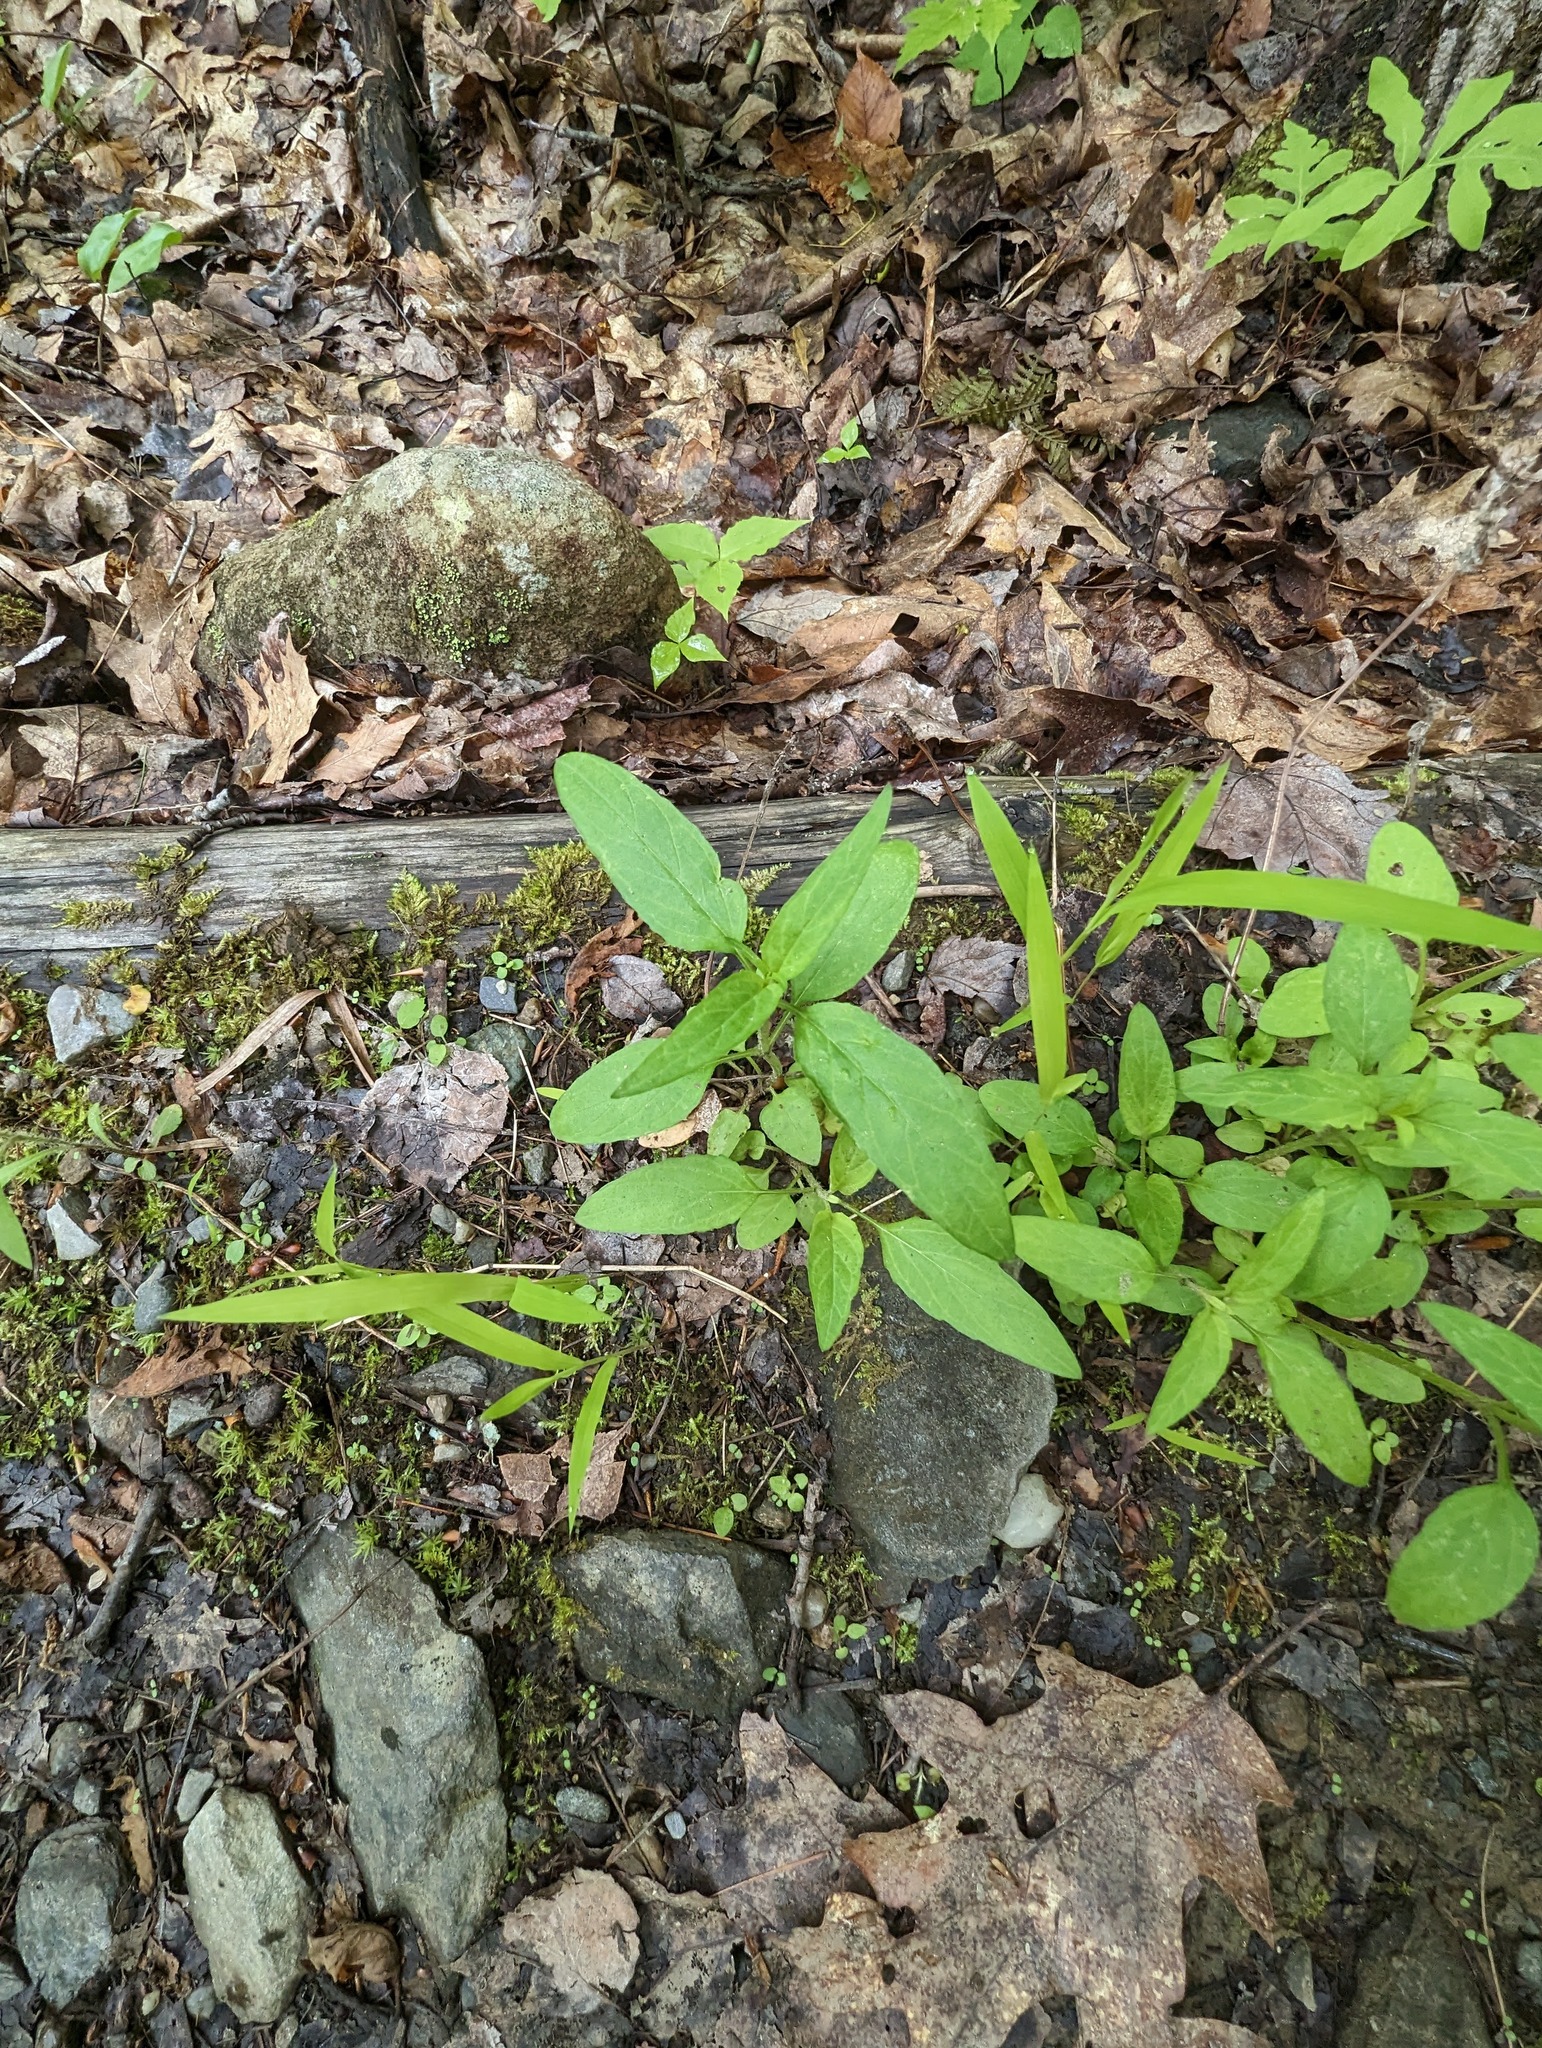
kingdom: Plantae
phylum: Tracheophyta
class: Magnoliopsida
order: Lamiales
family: Lamiaceae
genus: Prunella
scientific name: Prunella vulgaris
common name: Heal-all
